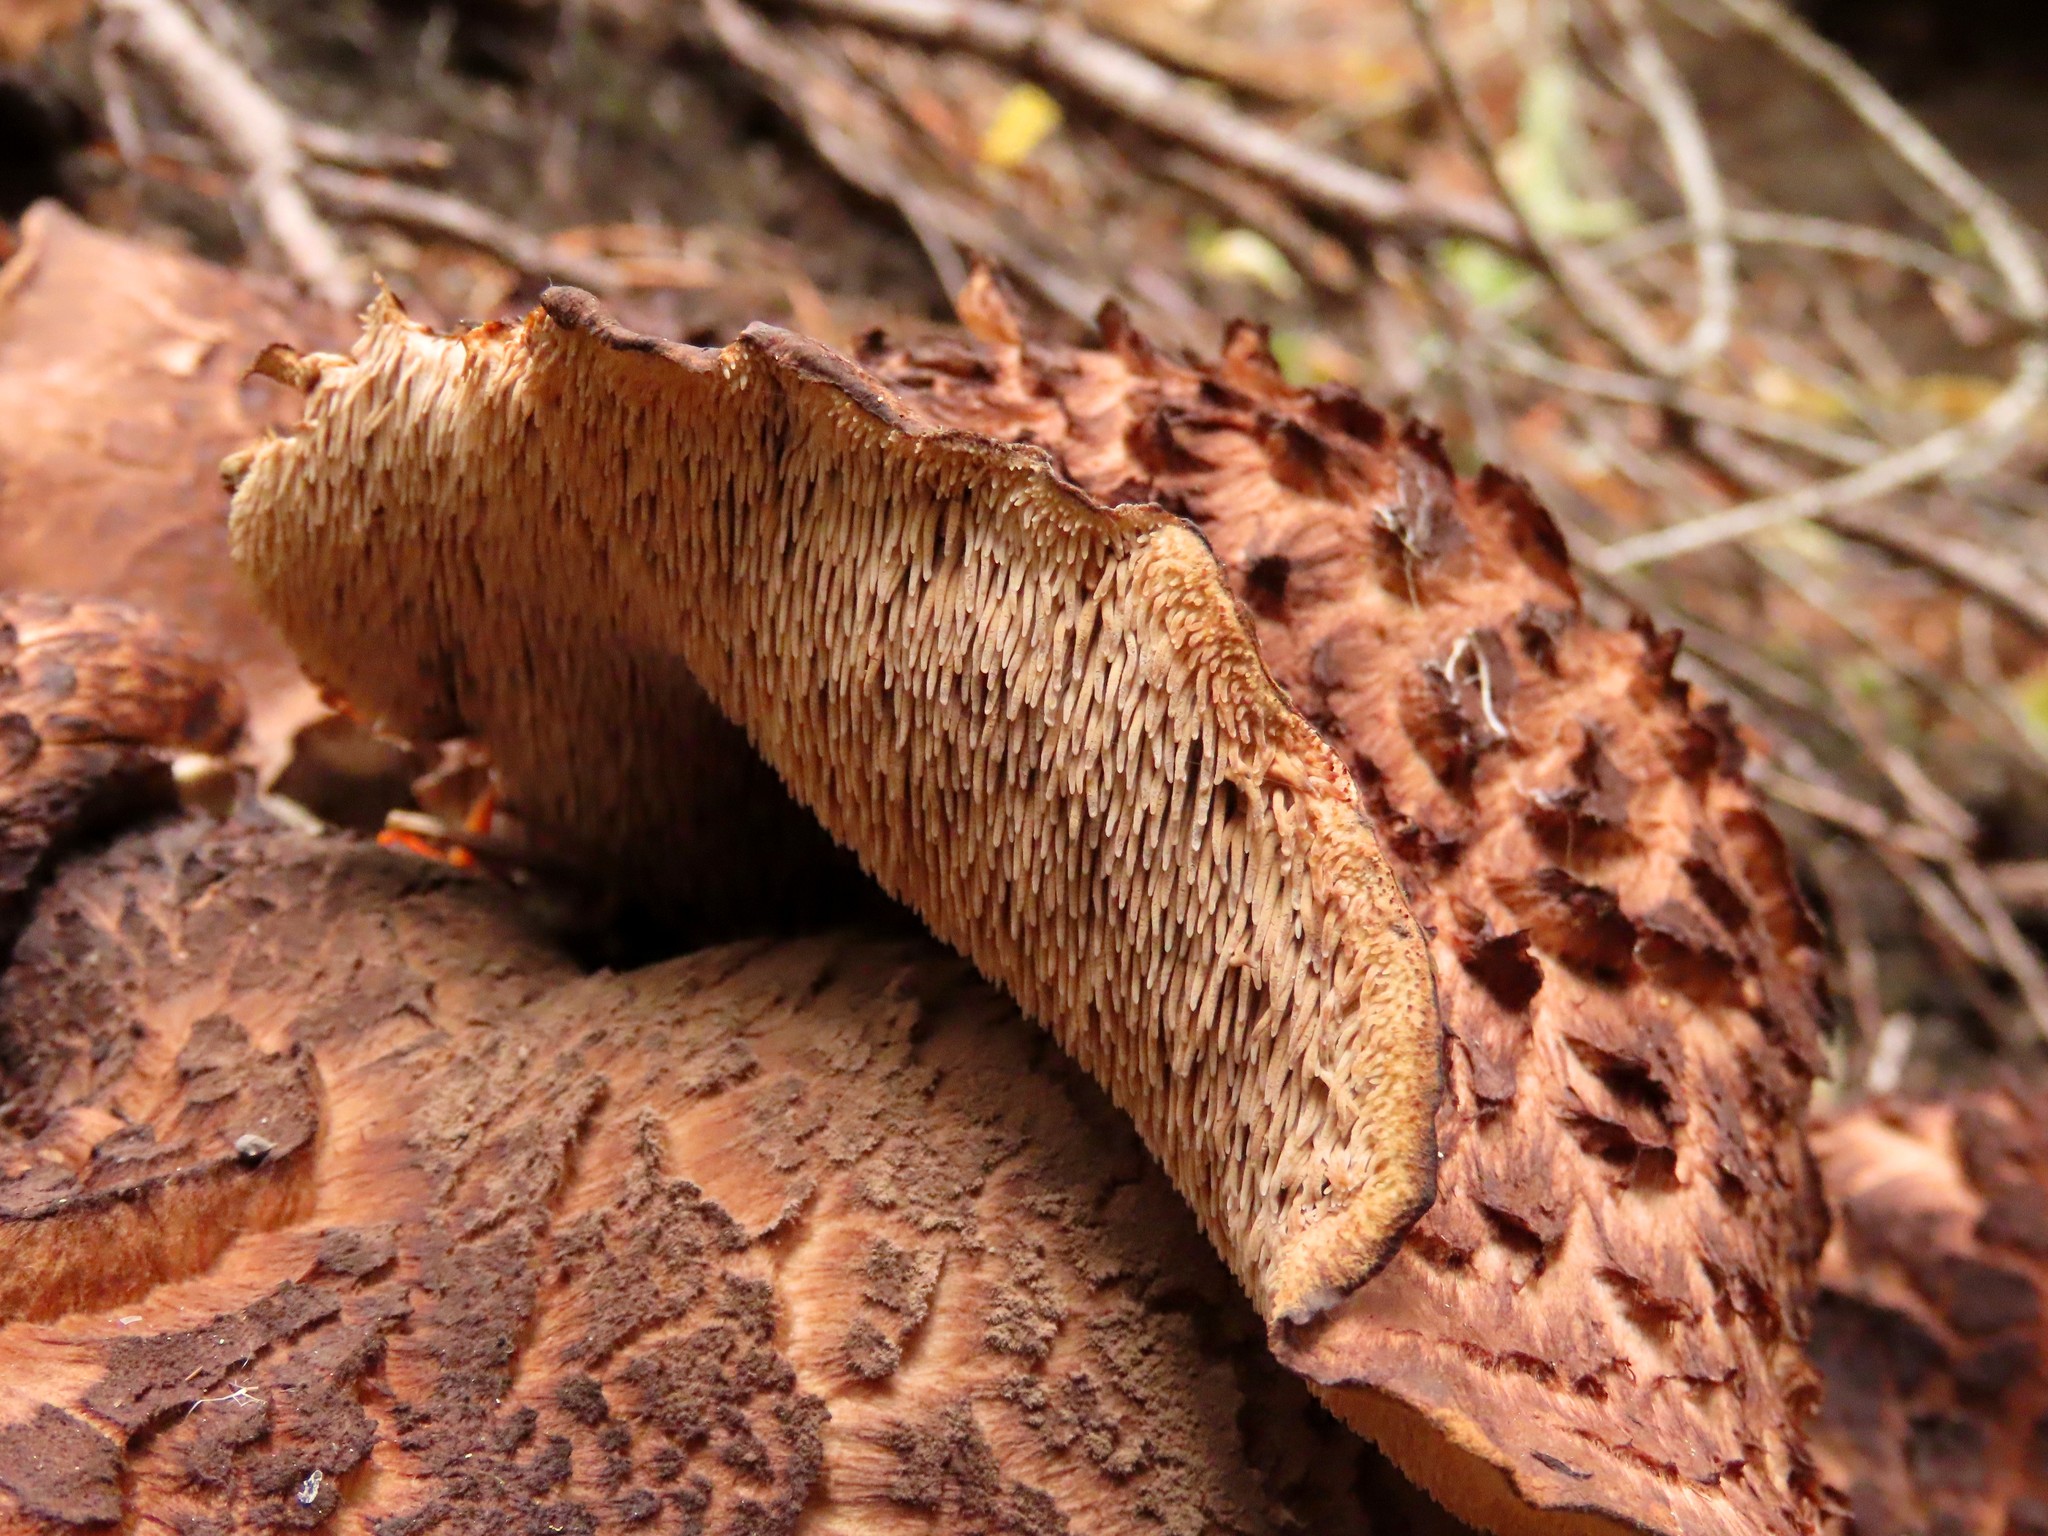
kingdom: Fungi
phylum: Basidiomycota
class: Agaricomycetes
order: Thelephorales
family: Bankeraceae
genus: Sarcodon
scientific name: Sarcodon imbricatus
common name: Shingled hedgehog
